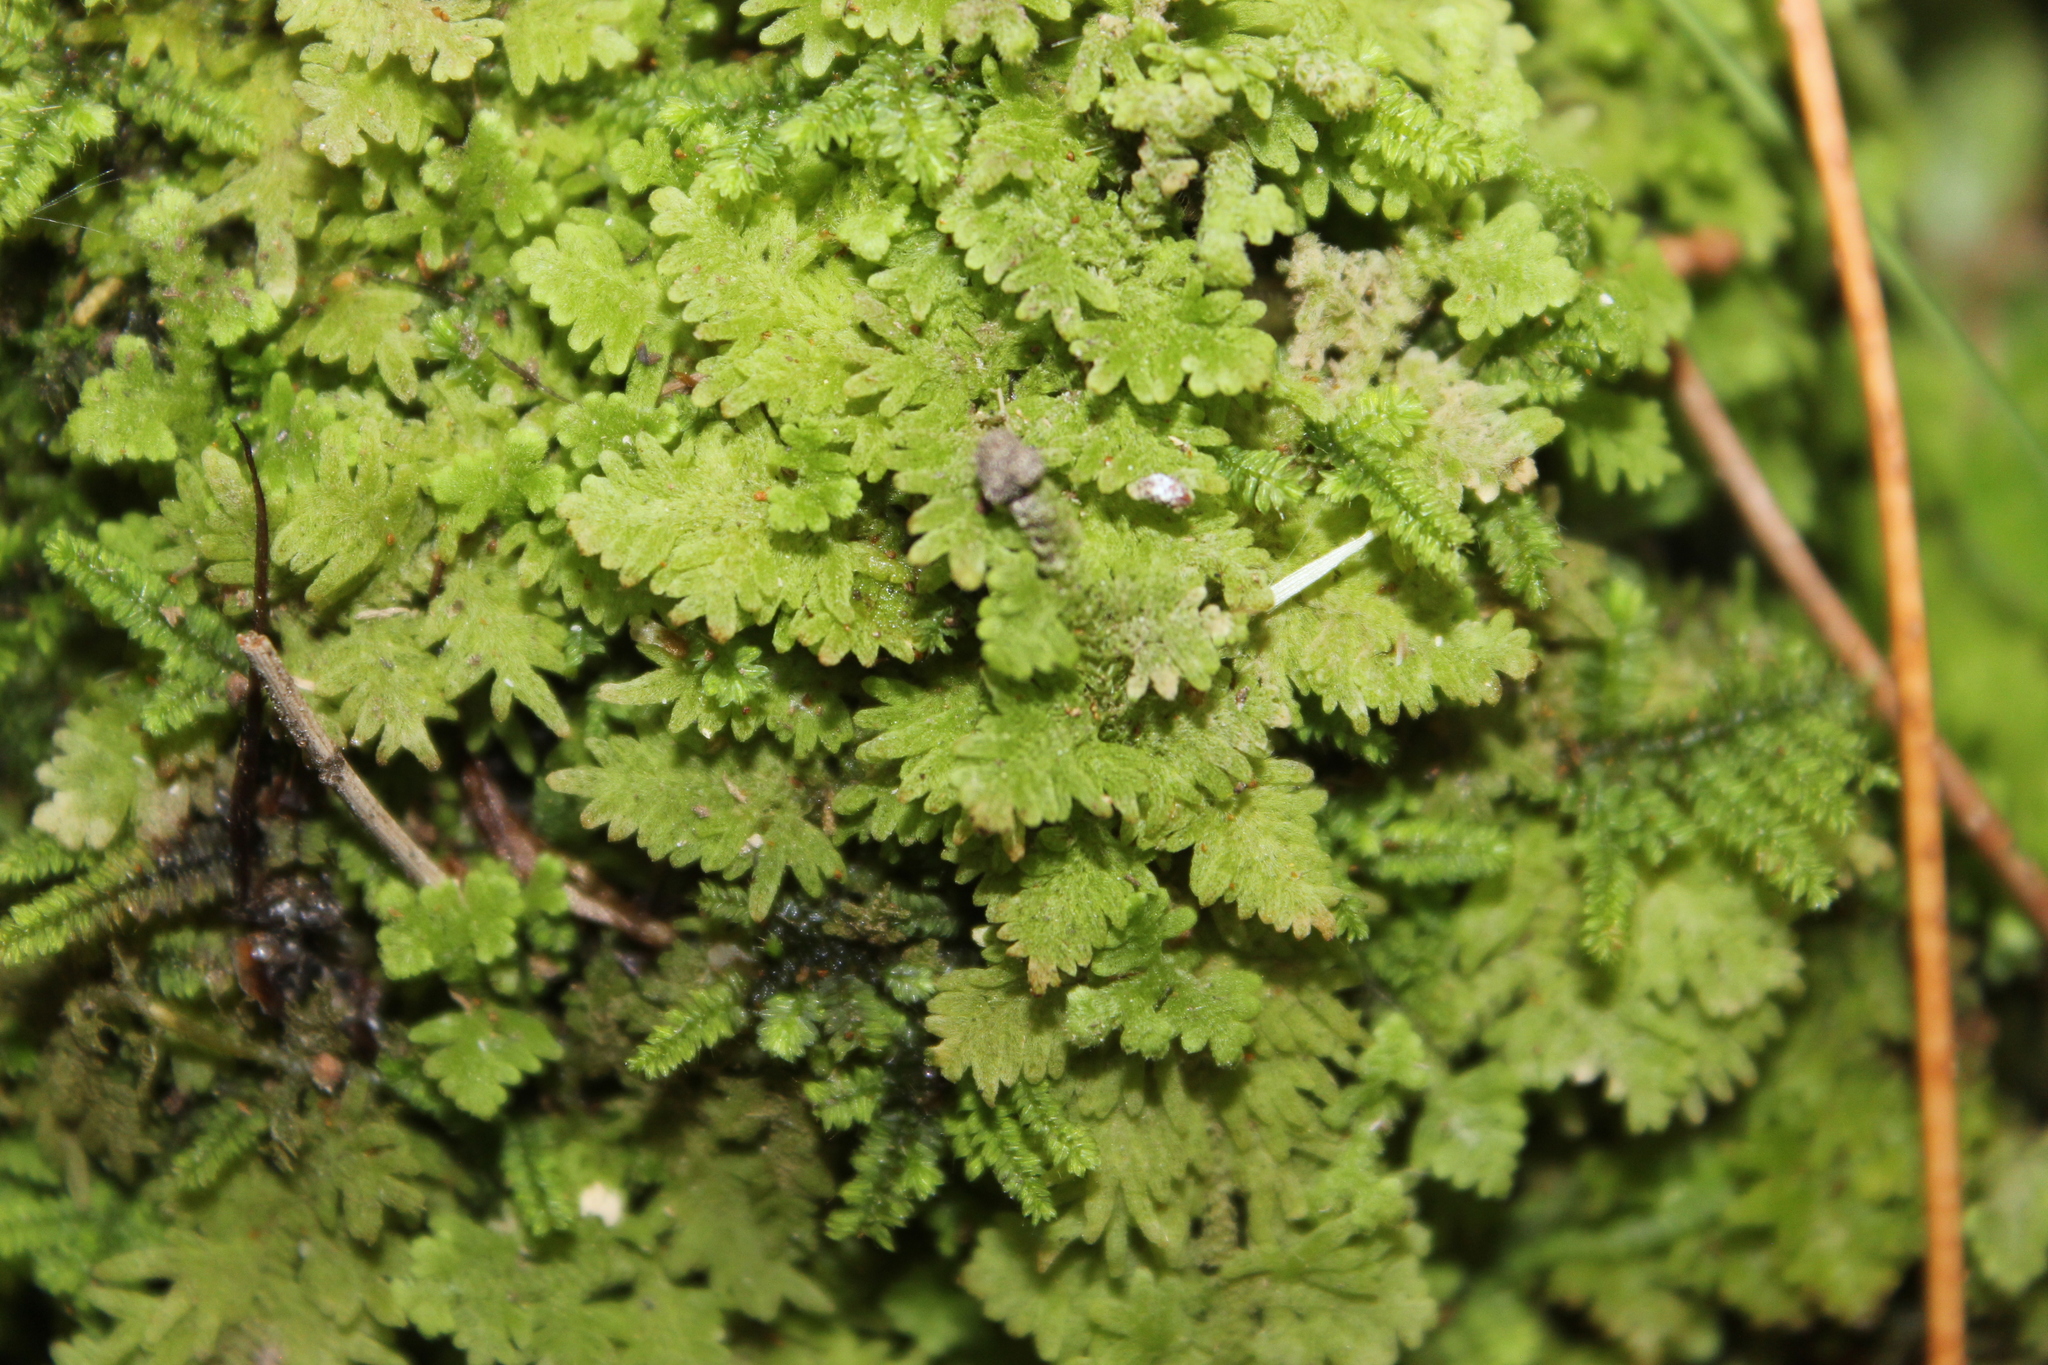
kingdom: Plantae
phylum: Marchantiophyta
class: Jungermanniopsida
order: Jungermanniales
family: Trichocoleaceae
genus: Trichocolea
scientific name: Trichocolea hatcheri
